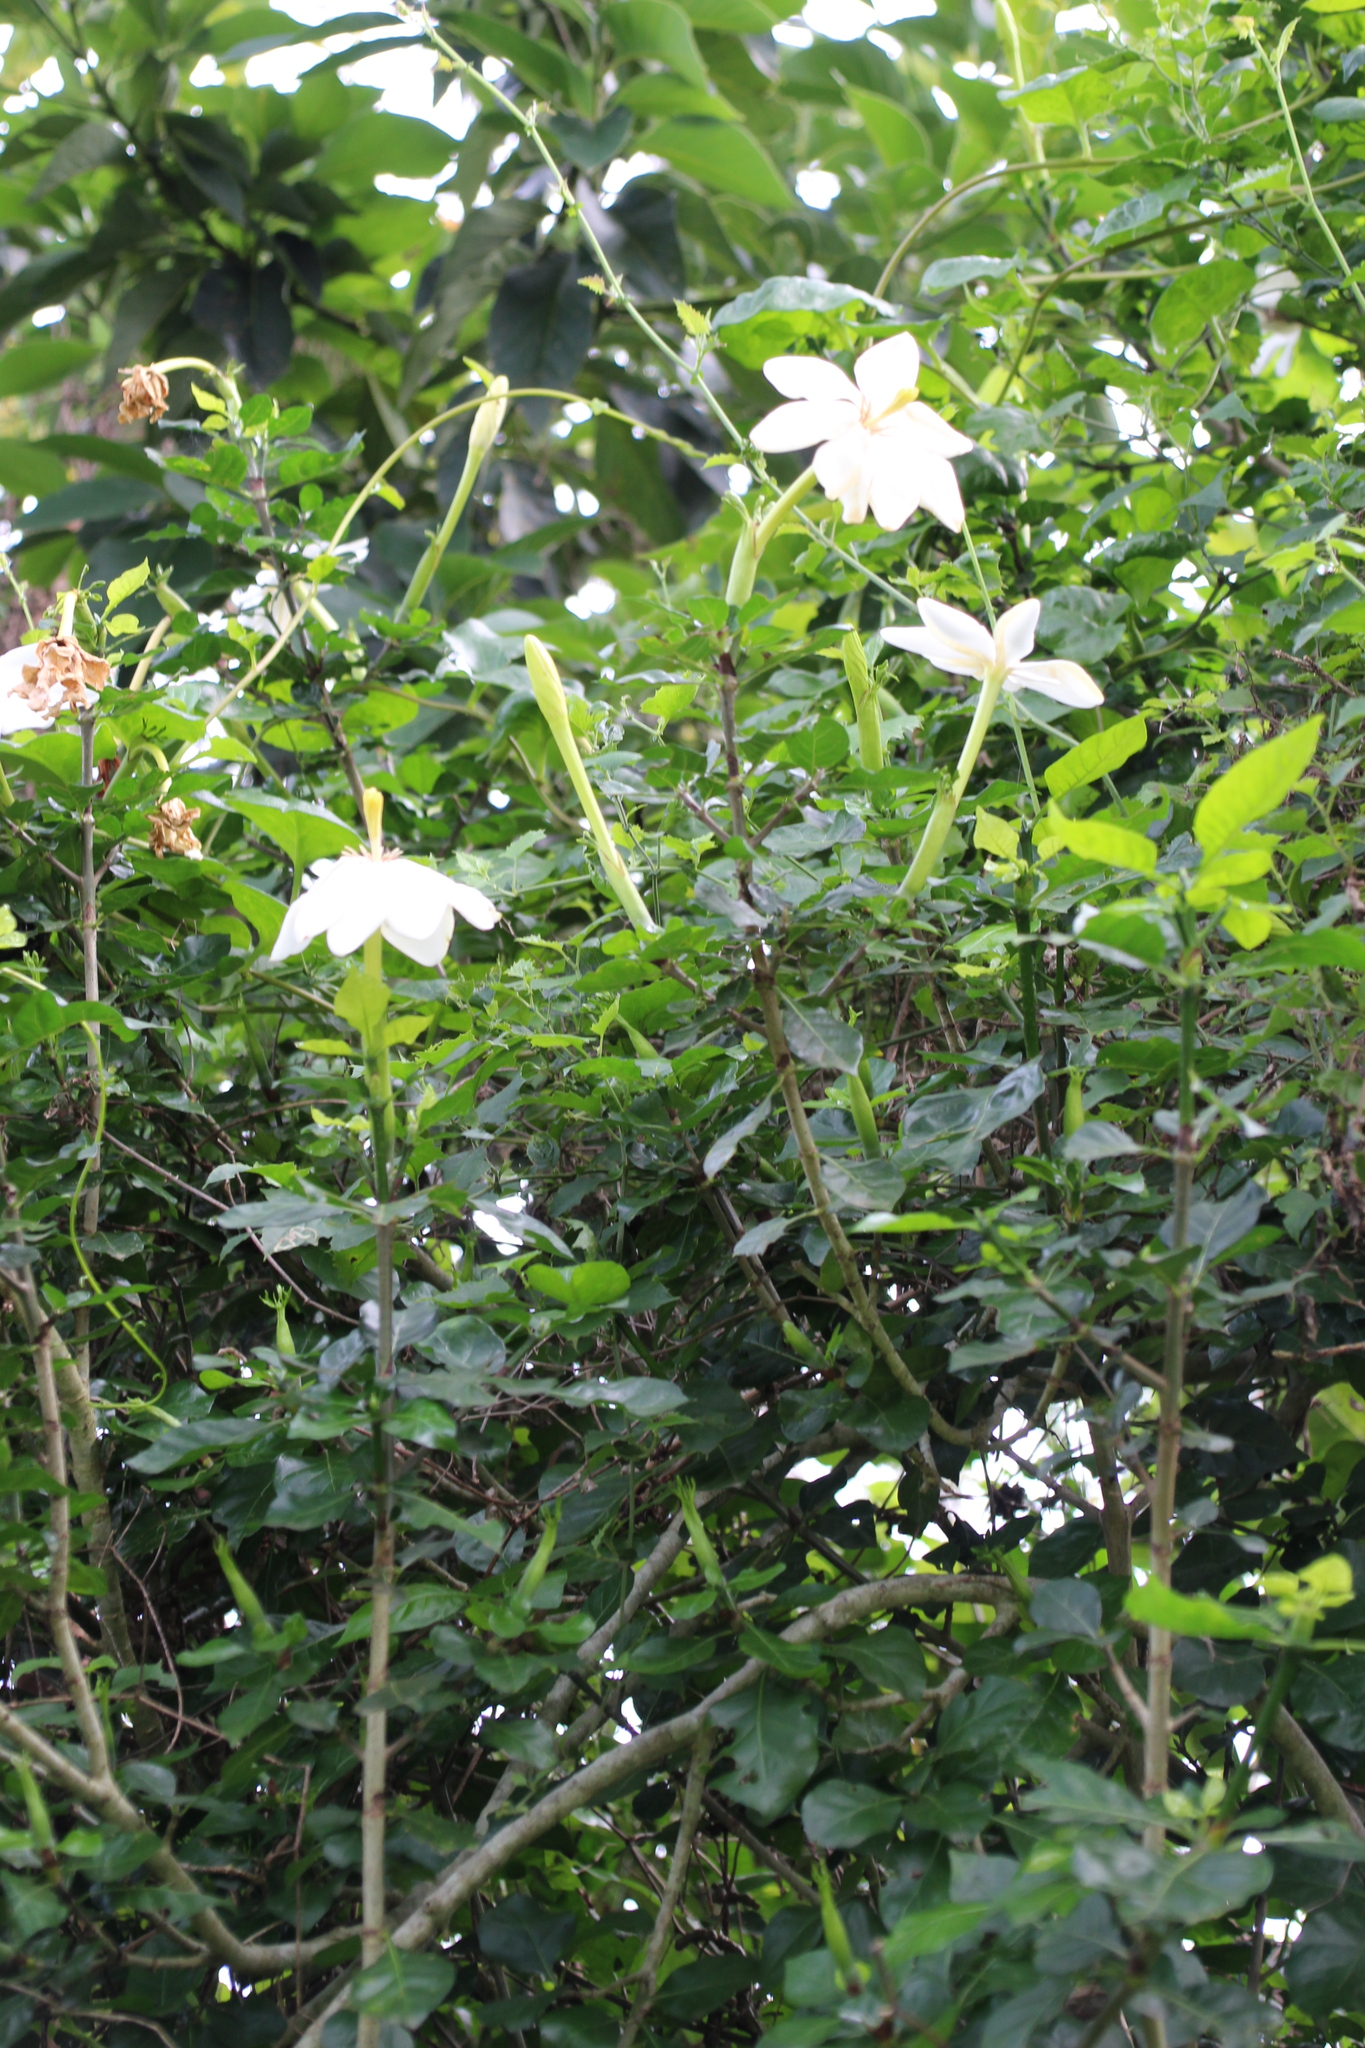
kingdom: Plantae
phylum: Tracheophyta
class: Magnoliopsida
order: Gentianales
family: Rubiaceae
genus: Gardenia
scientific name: Gardenia thunbergia
